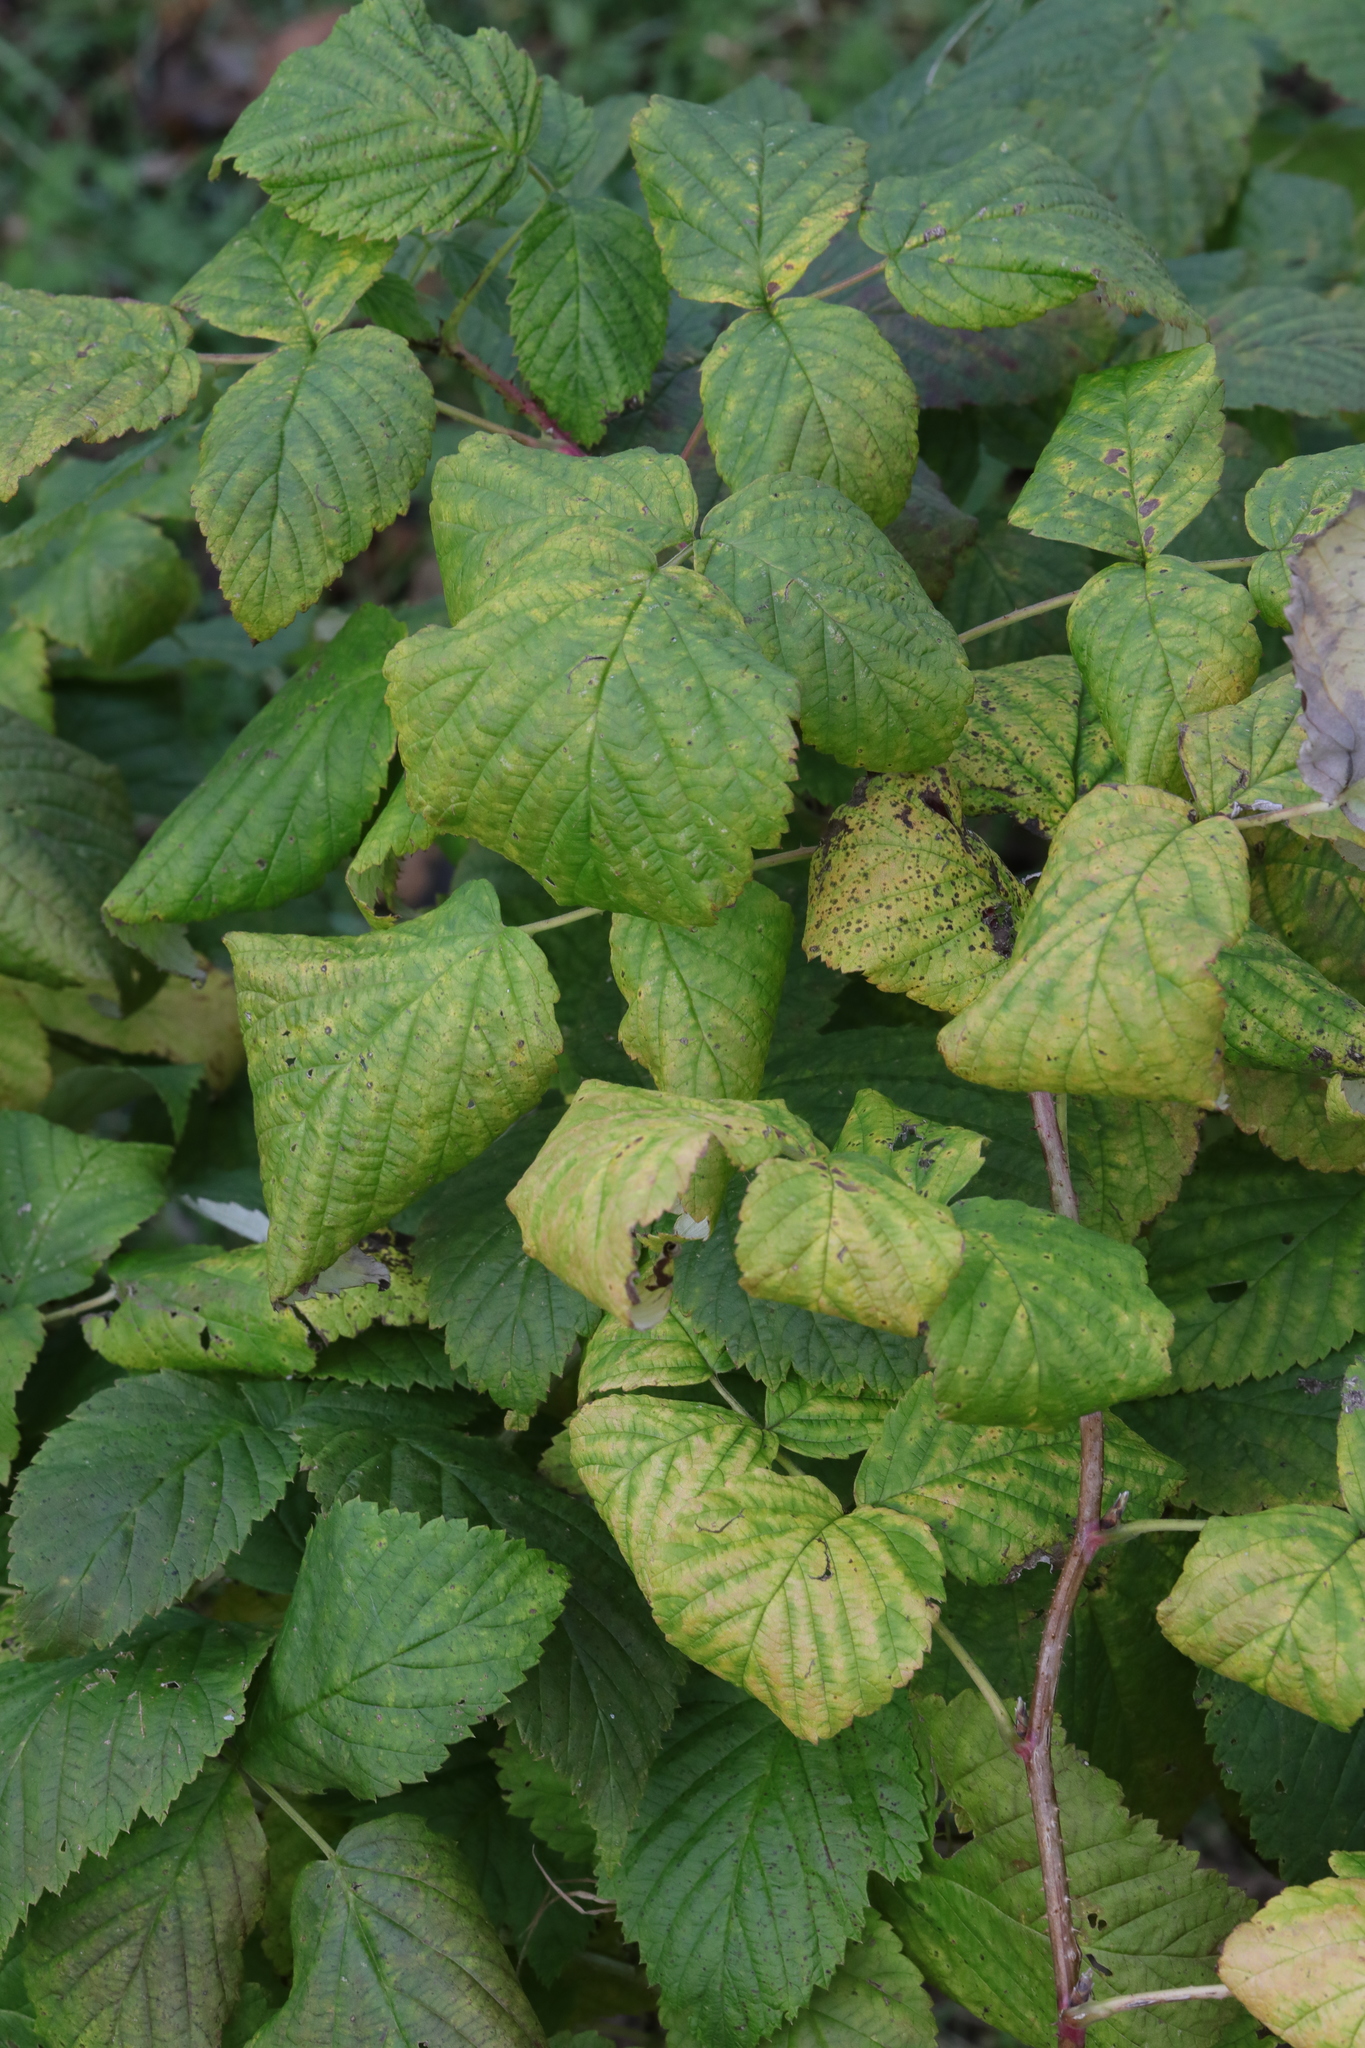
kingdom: Plantae
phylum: Tracheophyta
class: Magnoliopsida
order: Rosales
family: Rosaceae
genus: Rubus
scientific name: Rubus idaeus
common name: Raspberry
